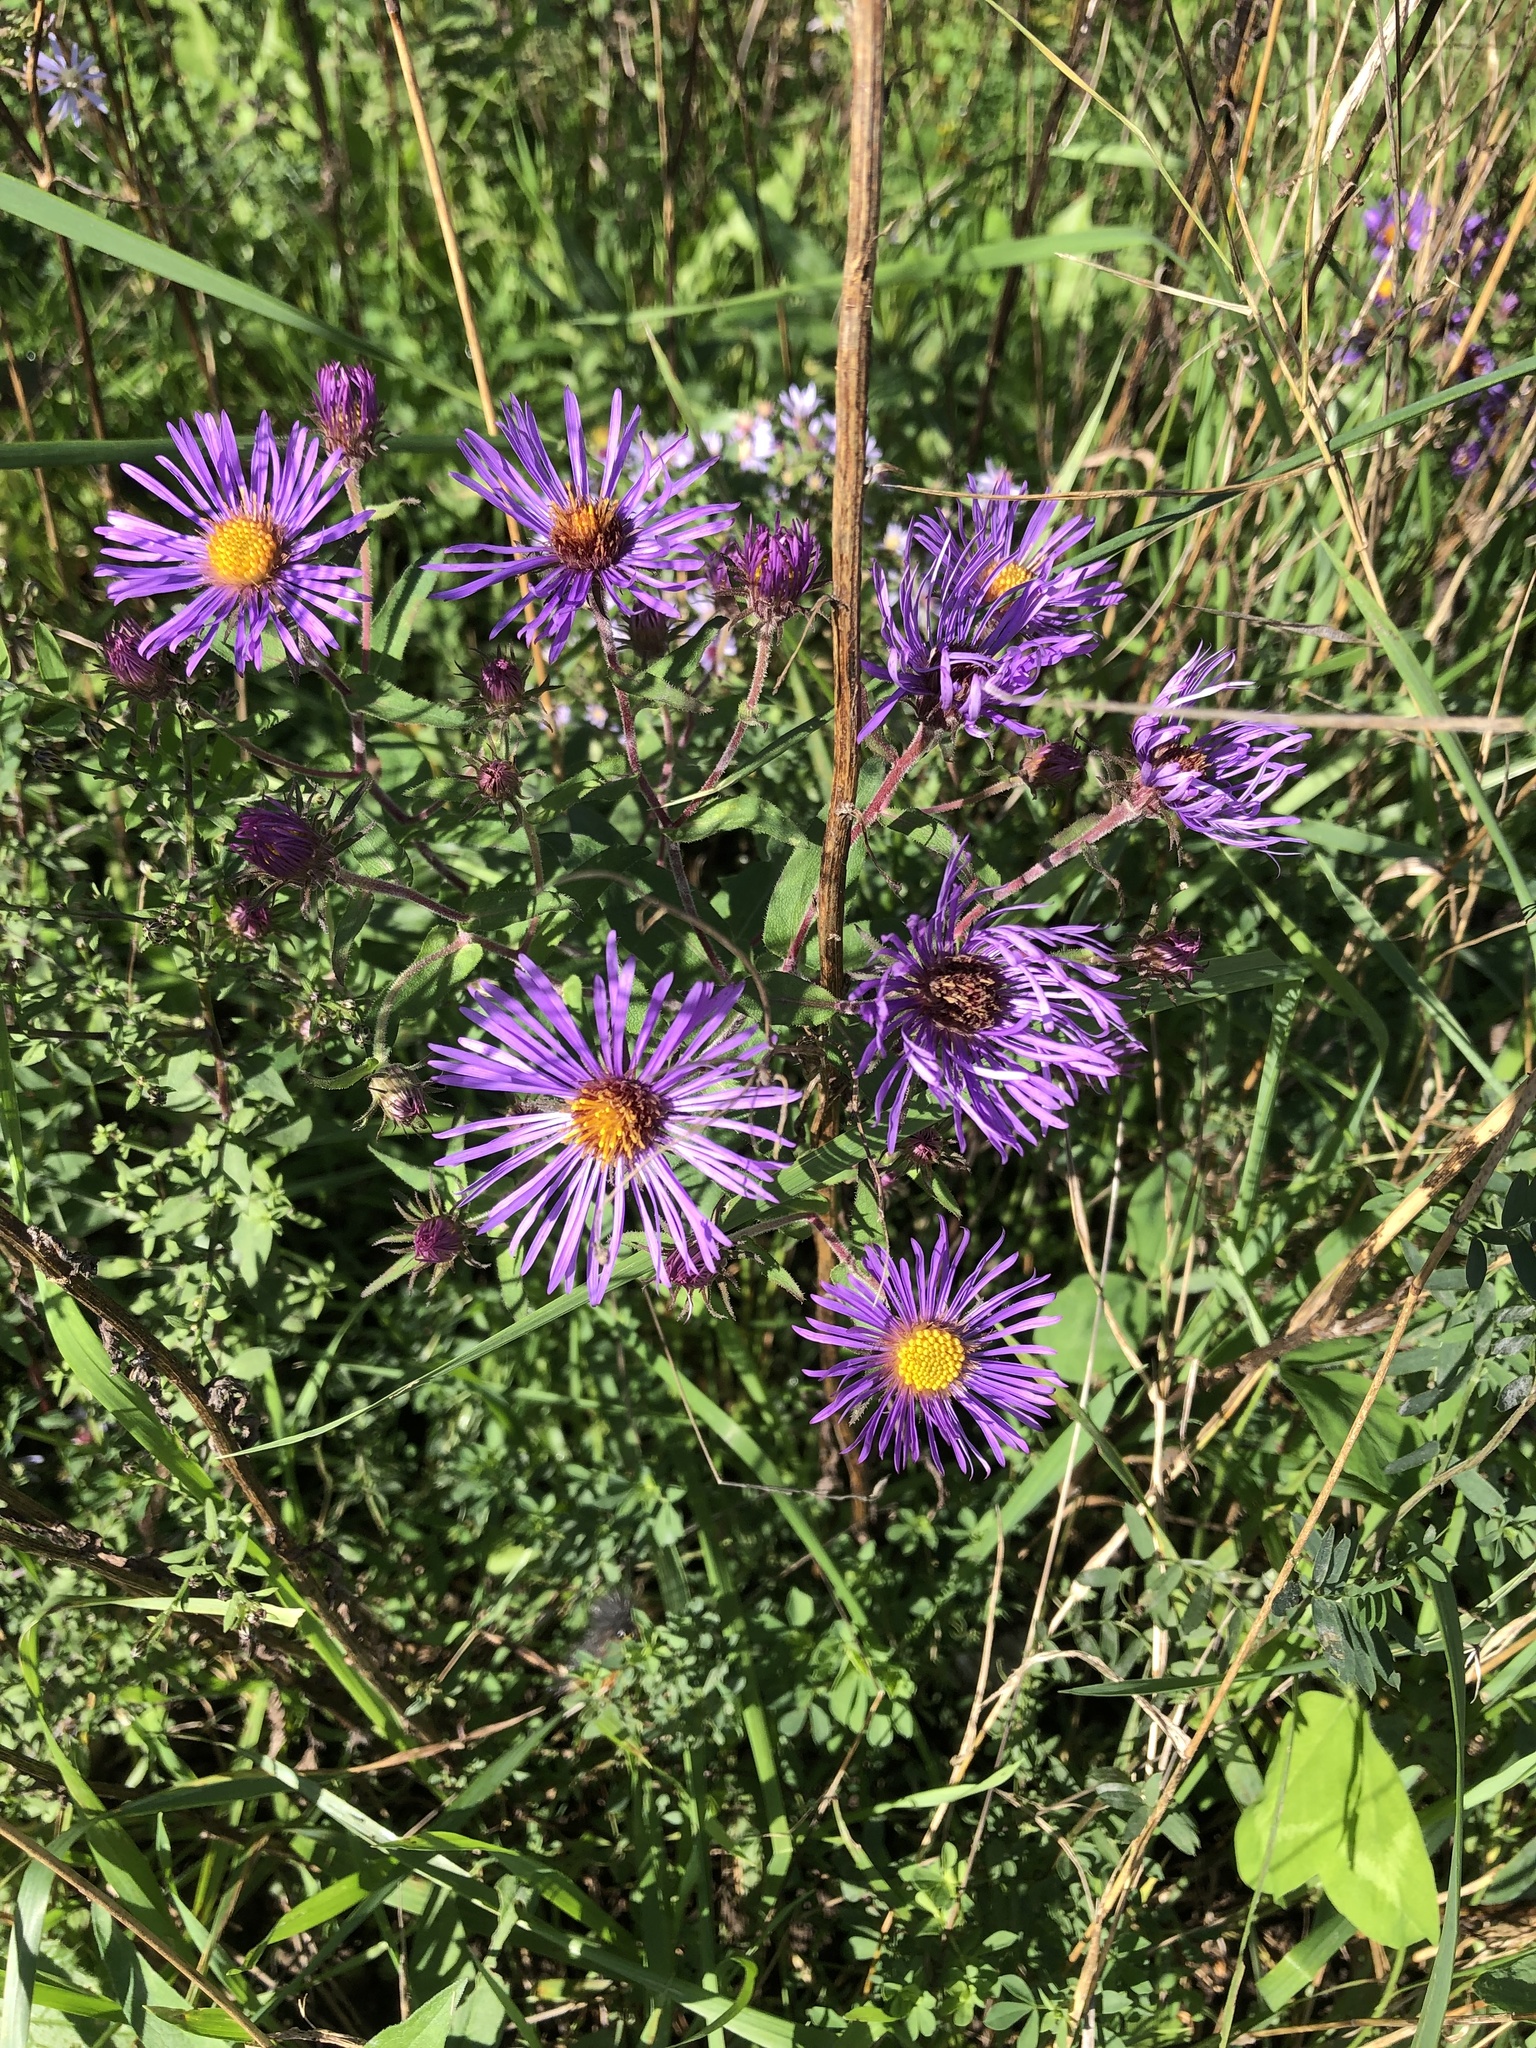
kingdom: Plantae
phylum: Tracheophyta
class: Magnoliopsida
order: Asterales
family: Asteraceae
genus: Symphyotrichum
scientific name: Symphyotrichum novae-angliae
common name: Michaelmas daisy
